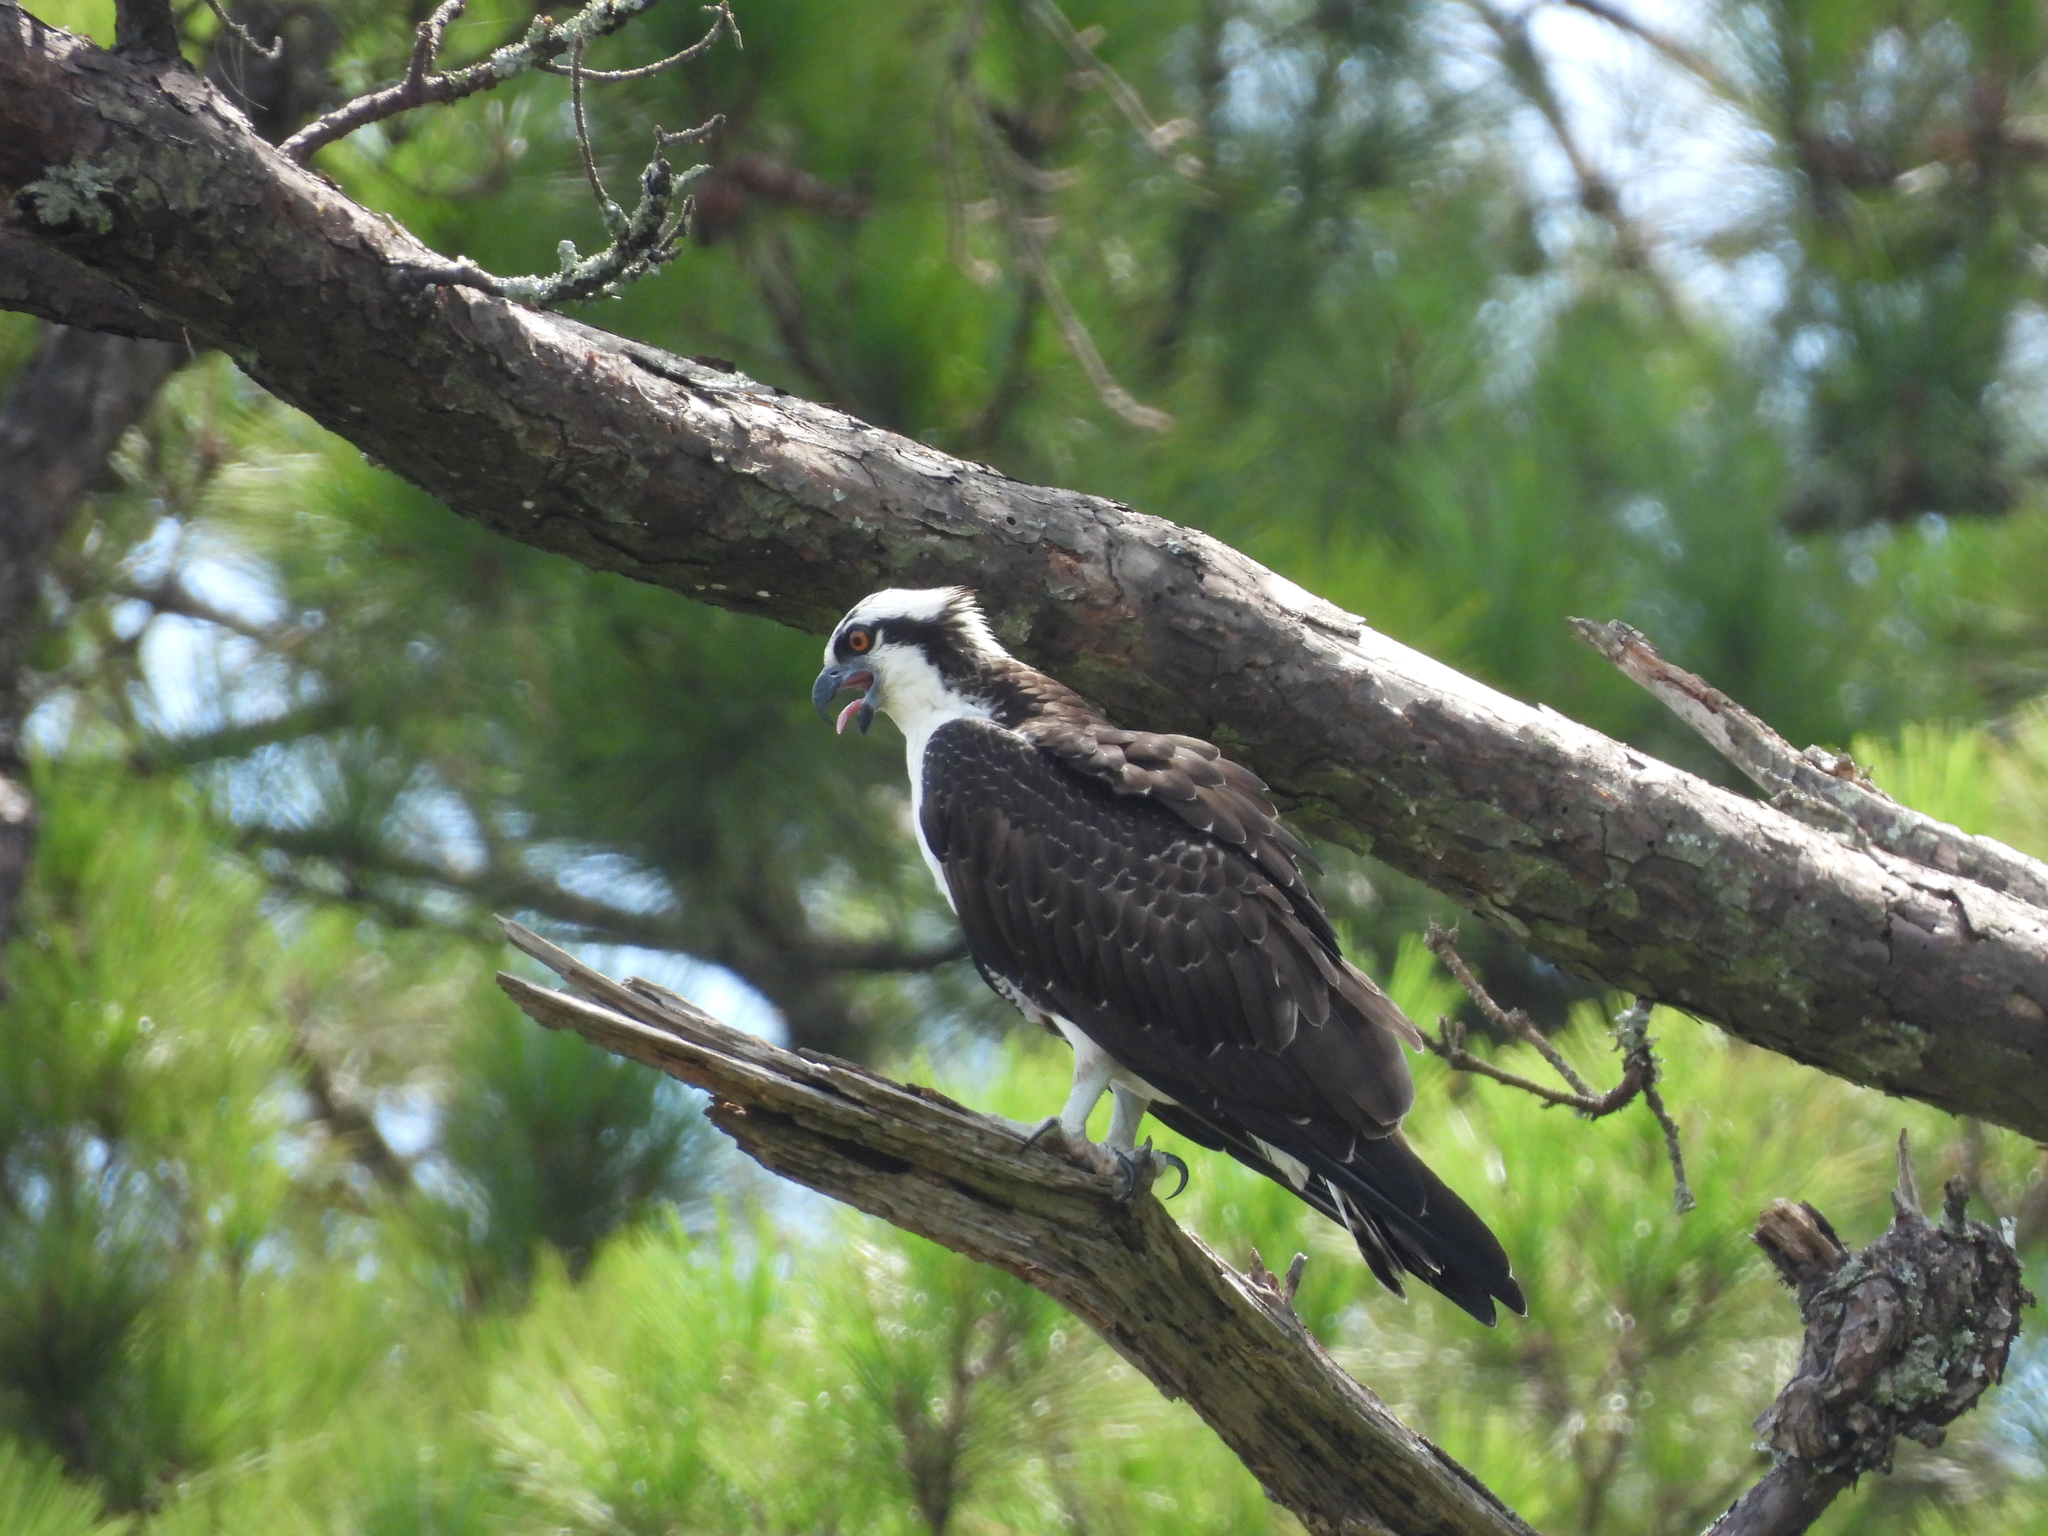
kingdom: Animalia
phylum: Chordata
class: Aves
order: Accipitriformes
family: Pandionidae
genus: Pandion
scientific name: Pandion haliaetus
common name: Osprey
